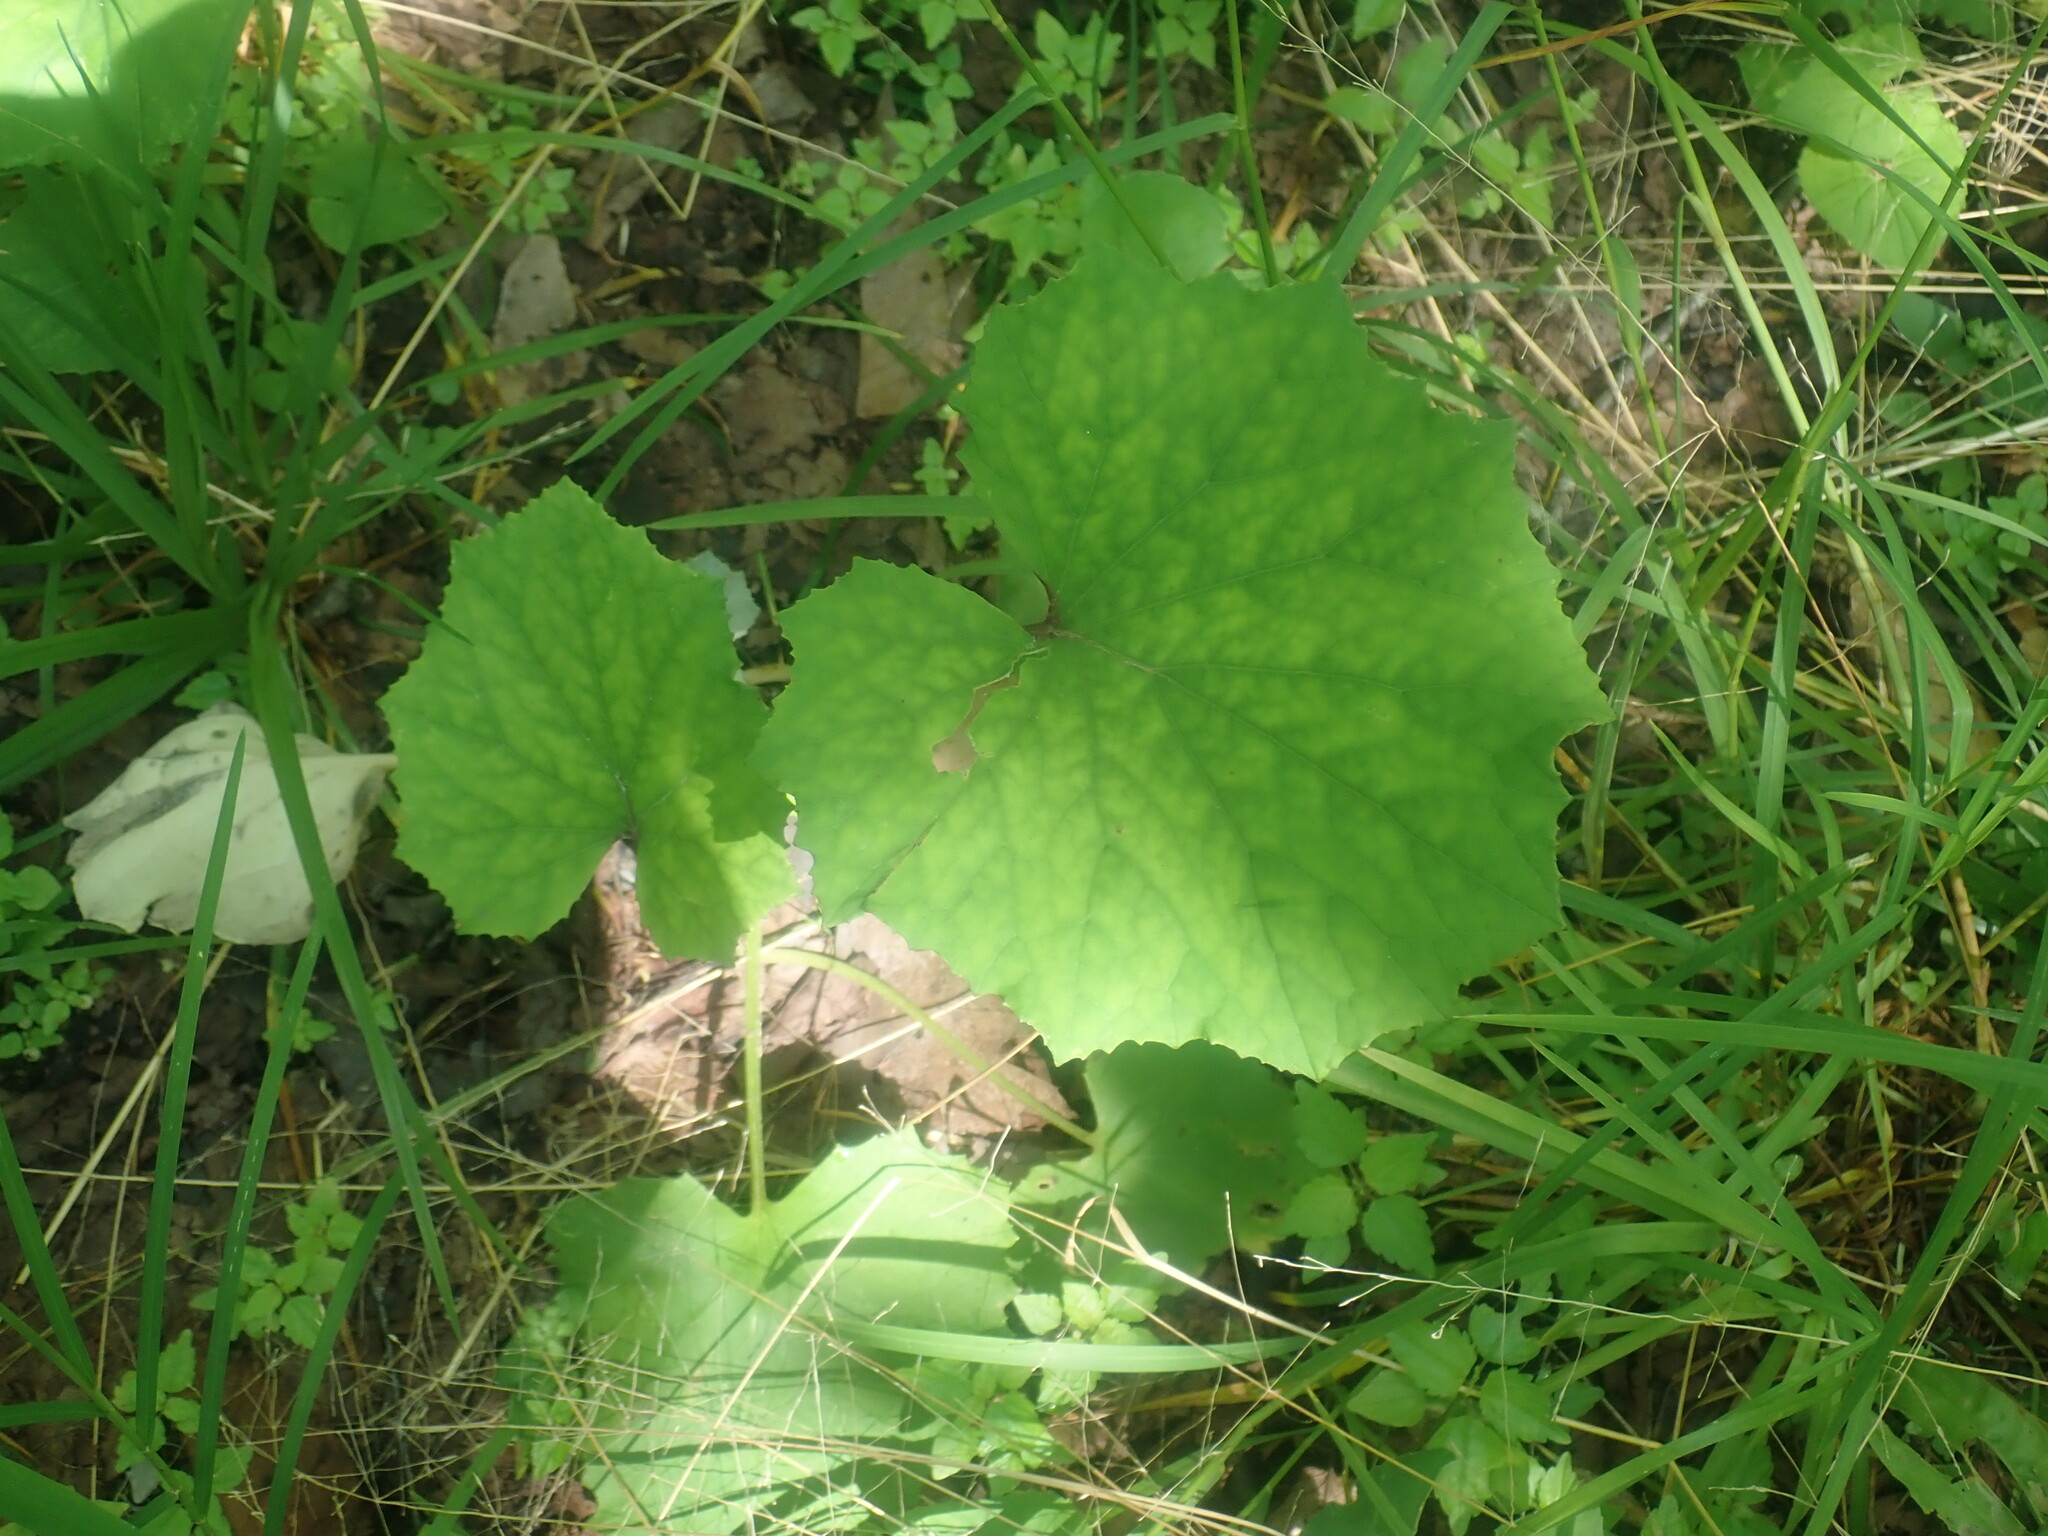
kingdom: Plantae
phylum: Tracheophyta
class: Magnoliopsida
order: Asterales
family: Asteraceae
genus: Tussilago
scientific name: Tussilago farfara
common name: Coltsfoot
